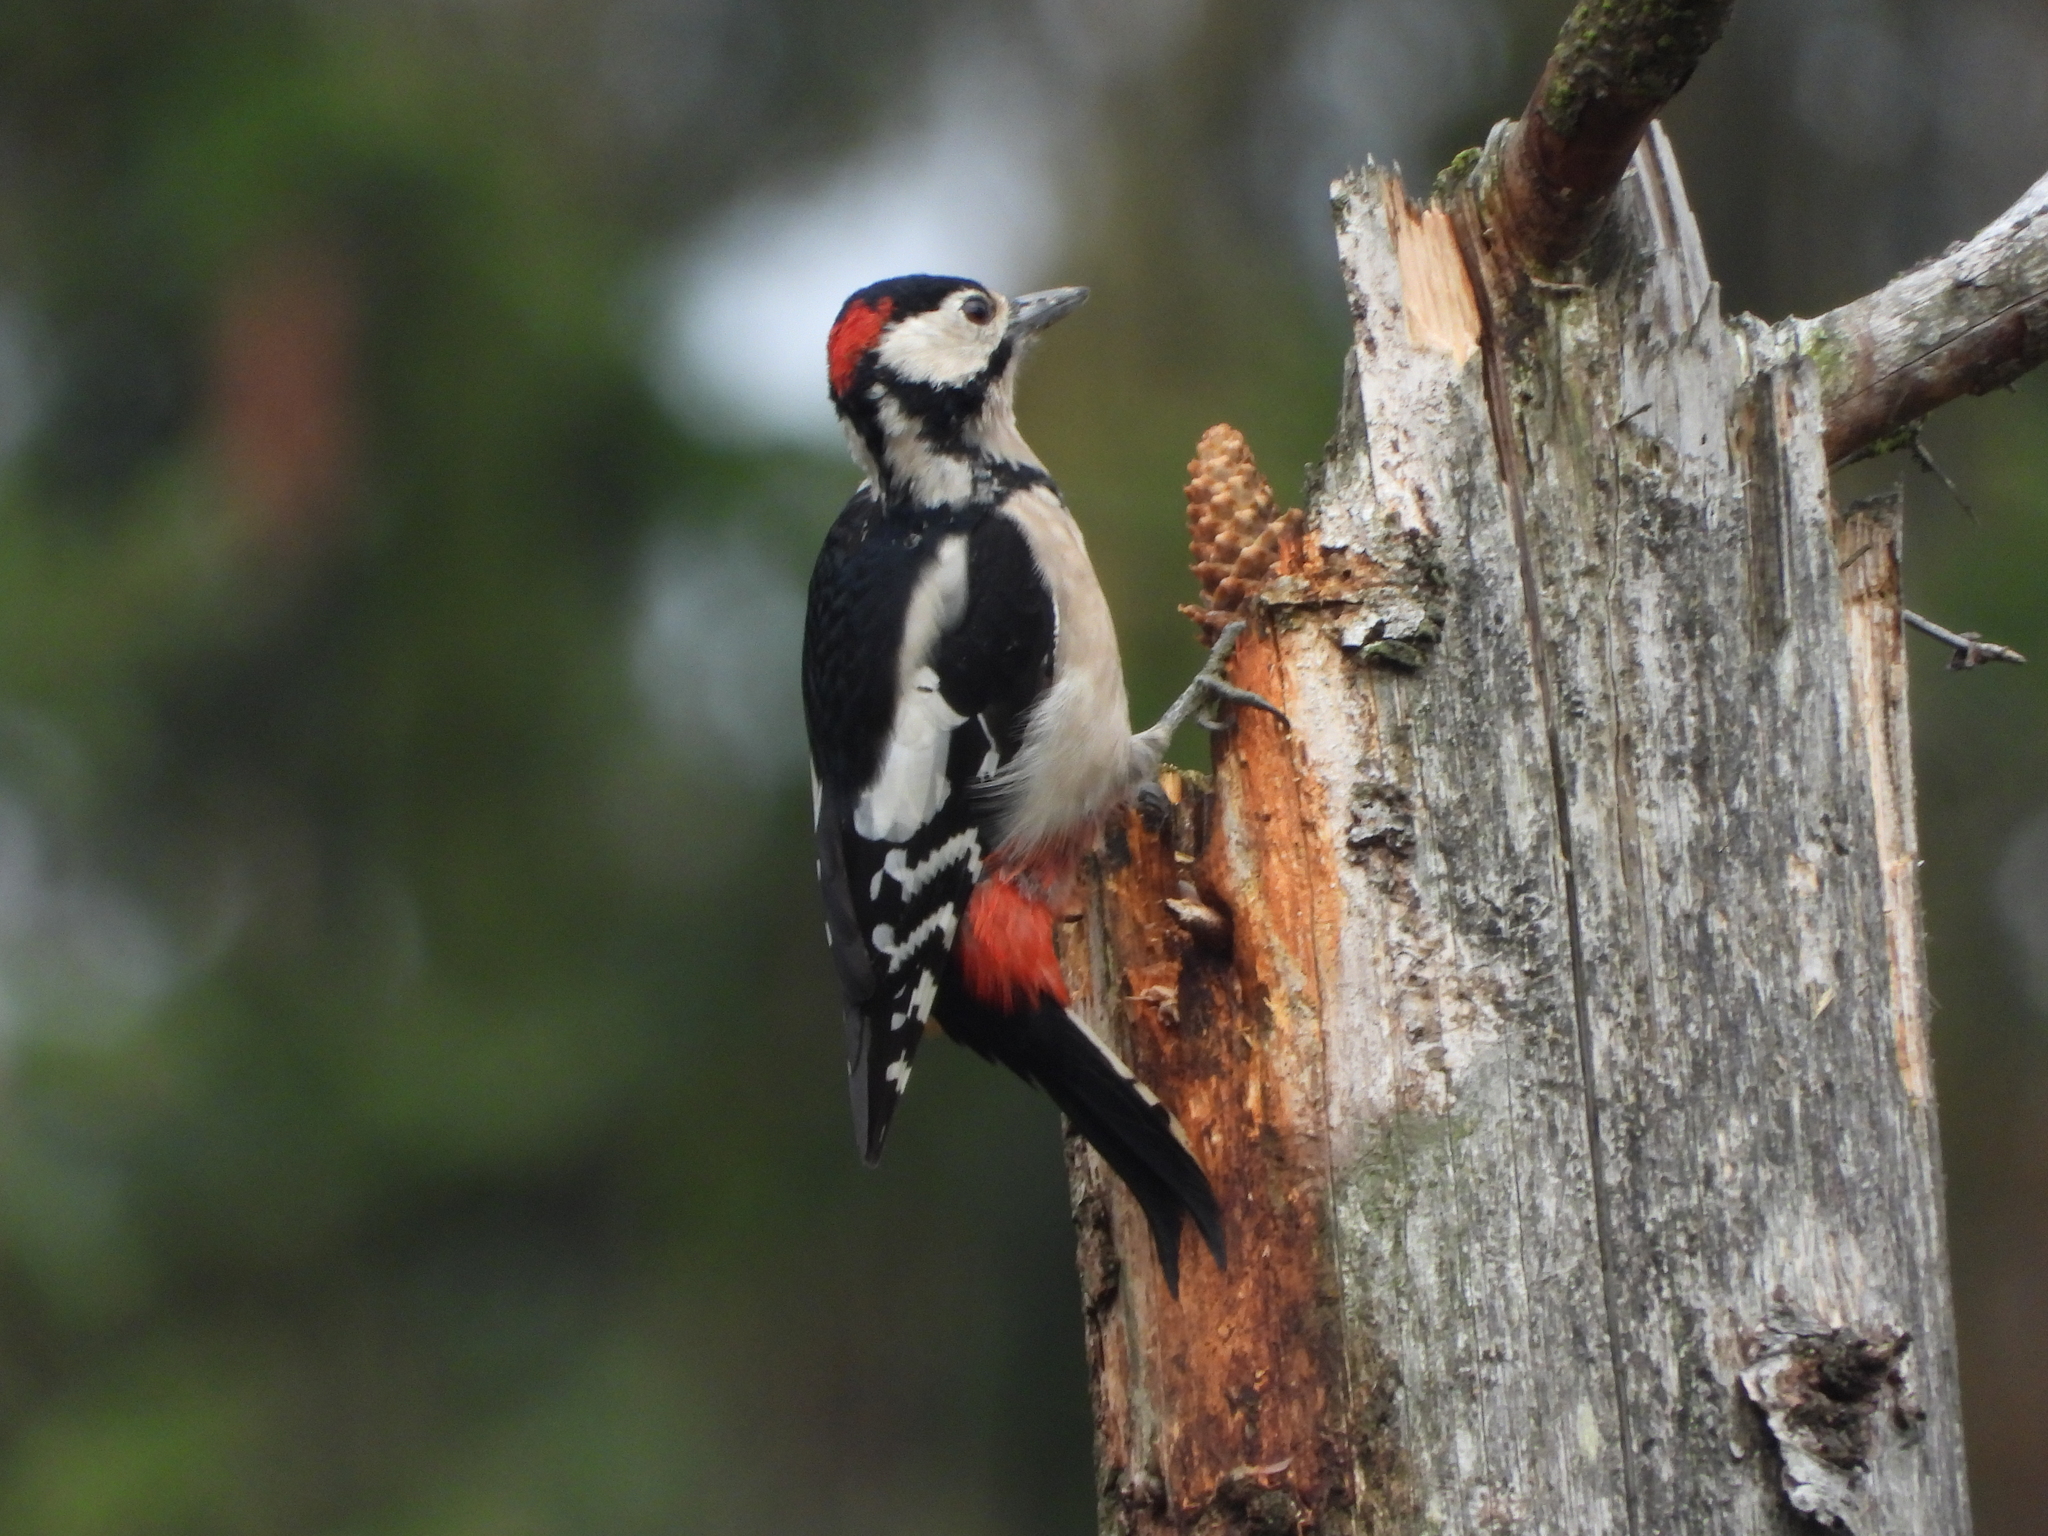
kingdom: Animalia
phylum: Chordata
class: Aves
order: Piciformes
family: Picidae
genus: Dendrocopos
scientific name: Dendrocopos major
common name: Great spotted woodpecker
